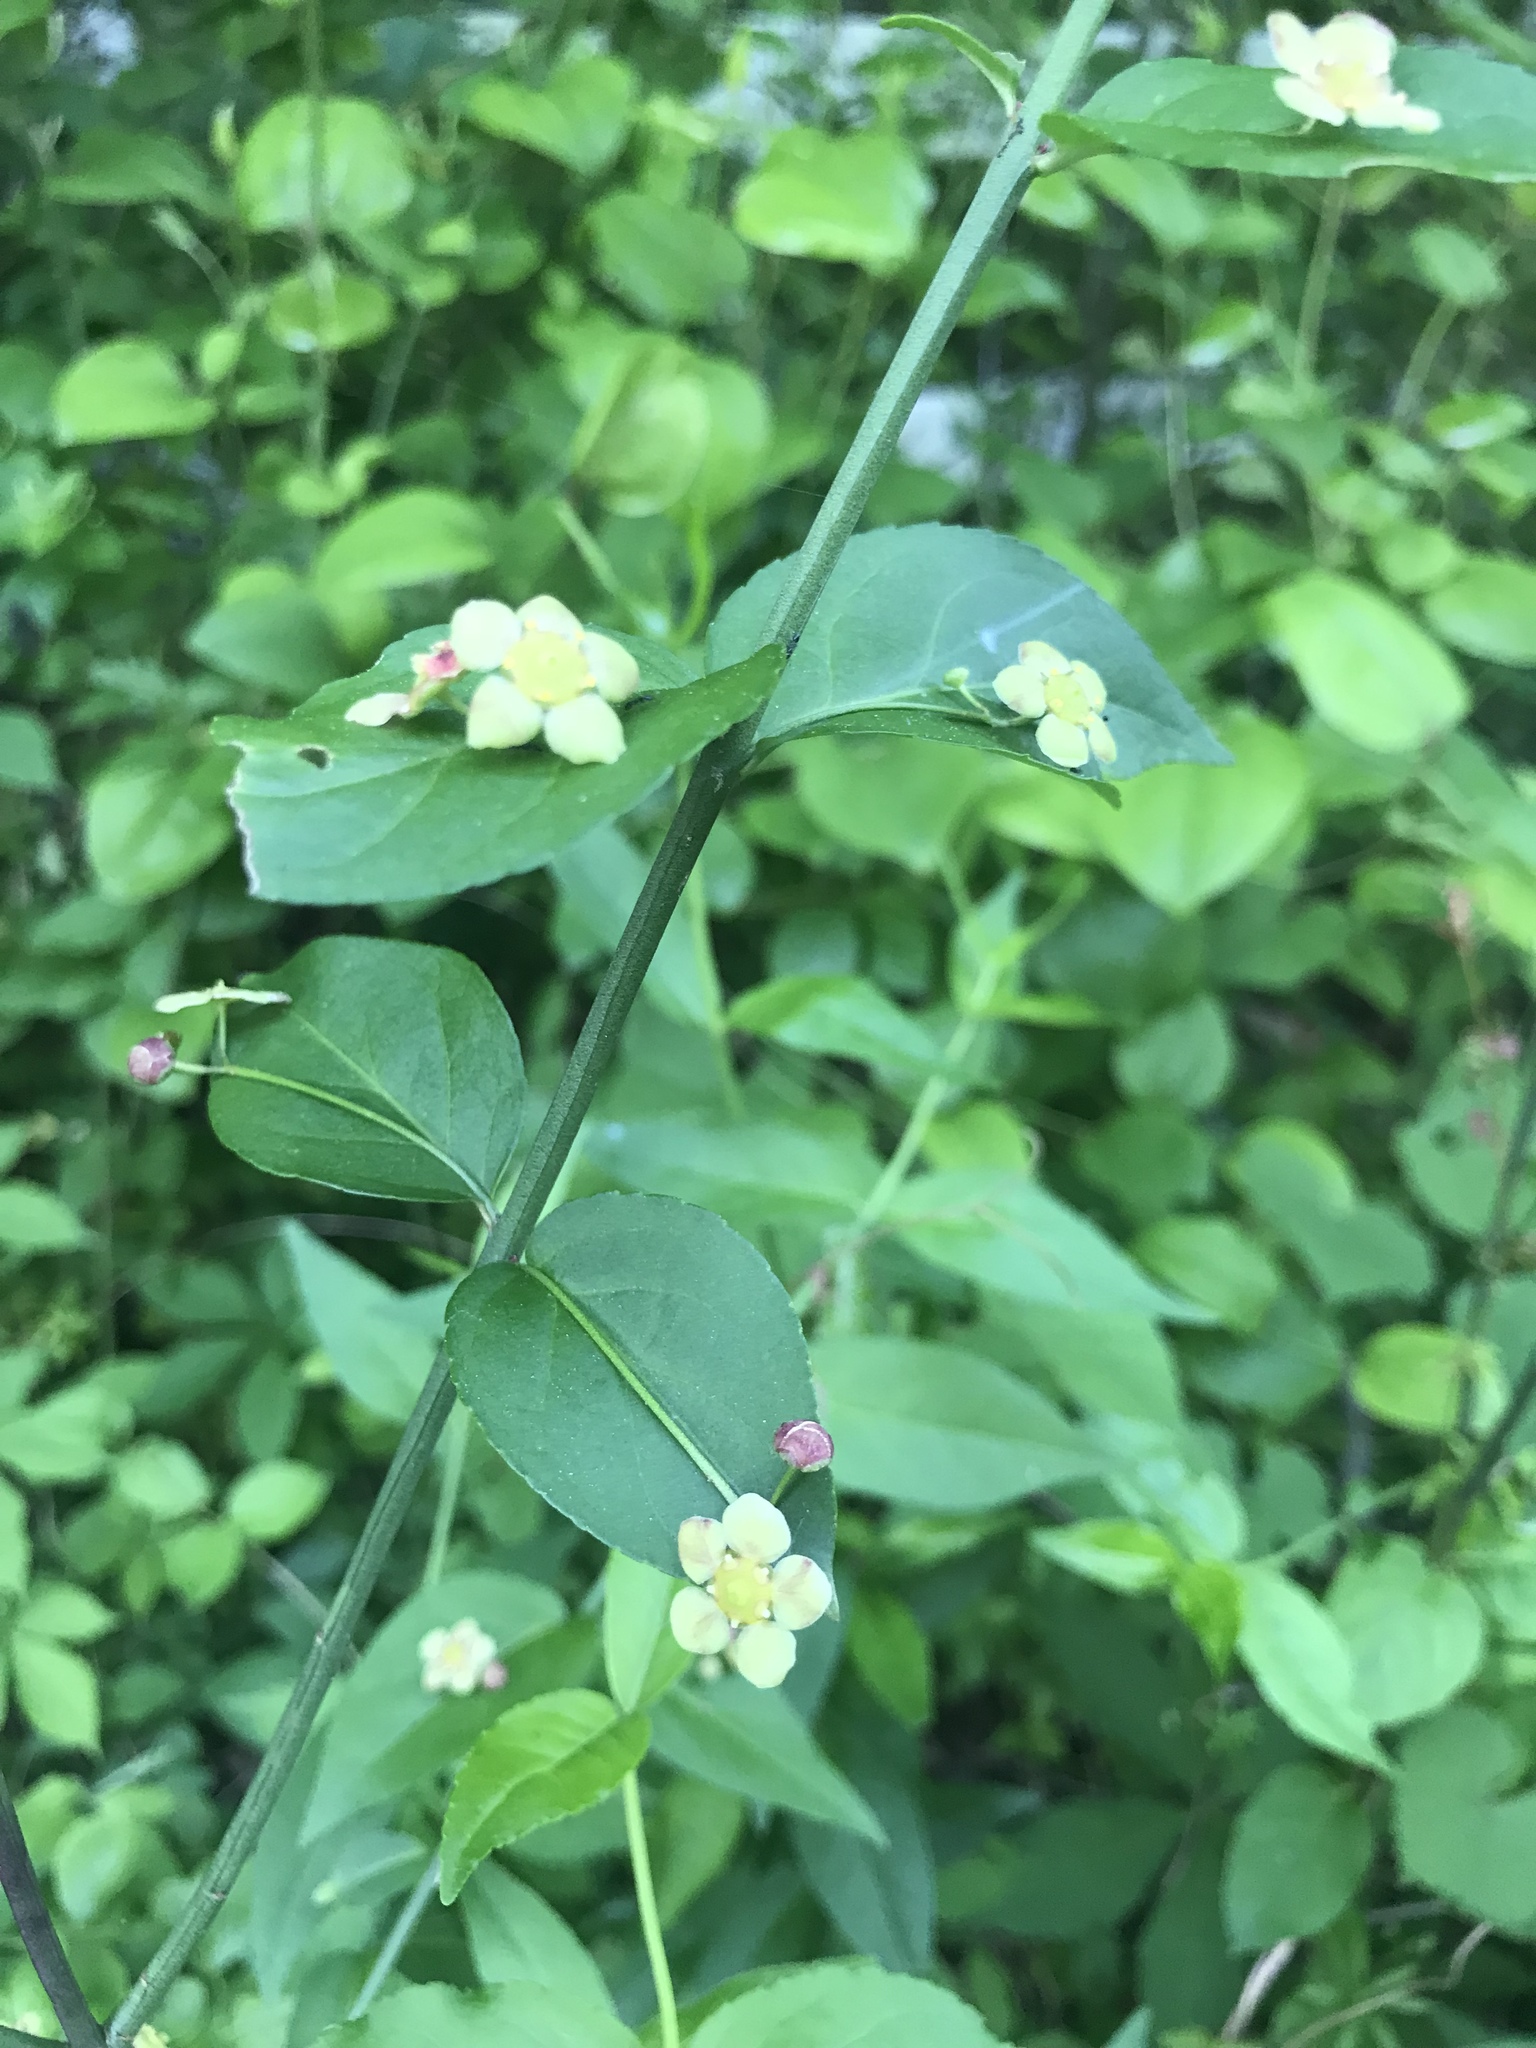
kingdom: Plantae
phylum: Tracheophyta
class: Magnoliopsida
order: Celastrales
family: Celastraceae
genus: Euonymus
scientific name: Euonymus americanus
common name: Bursting-heart
